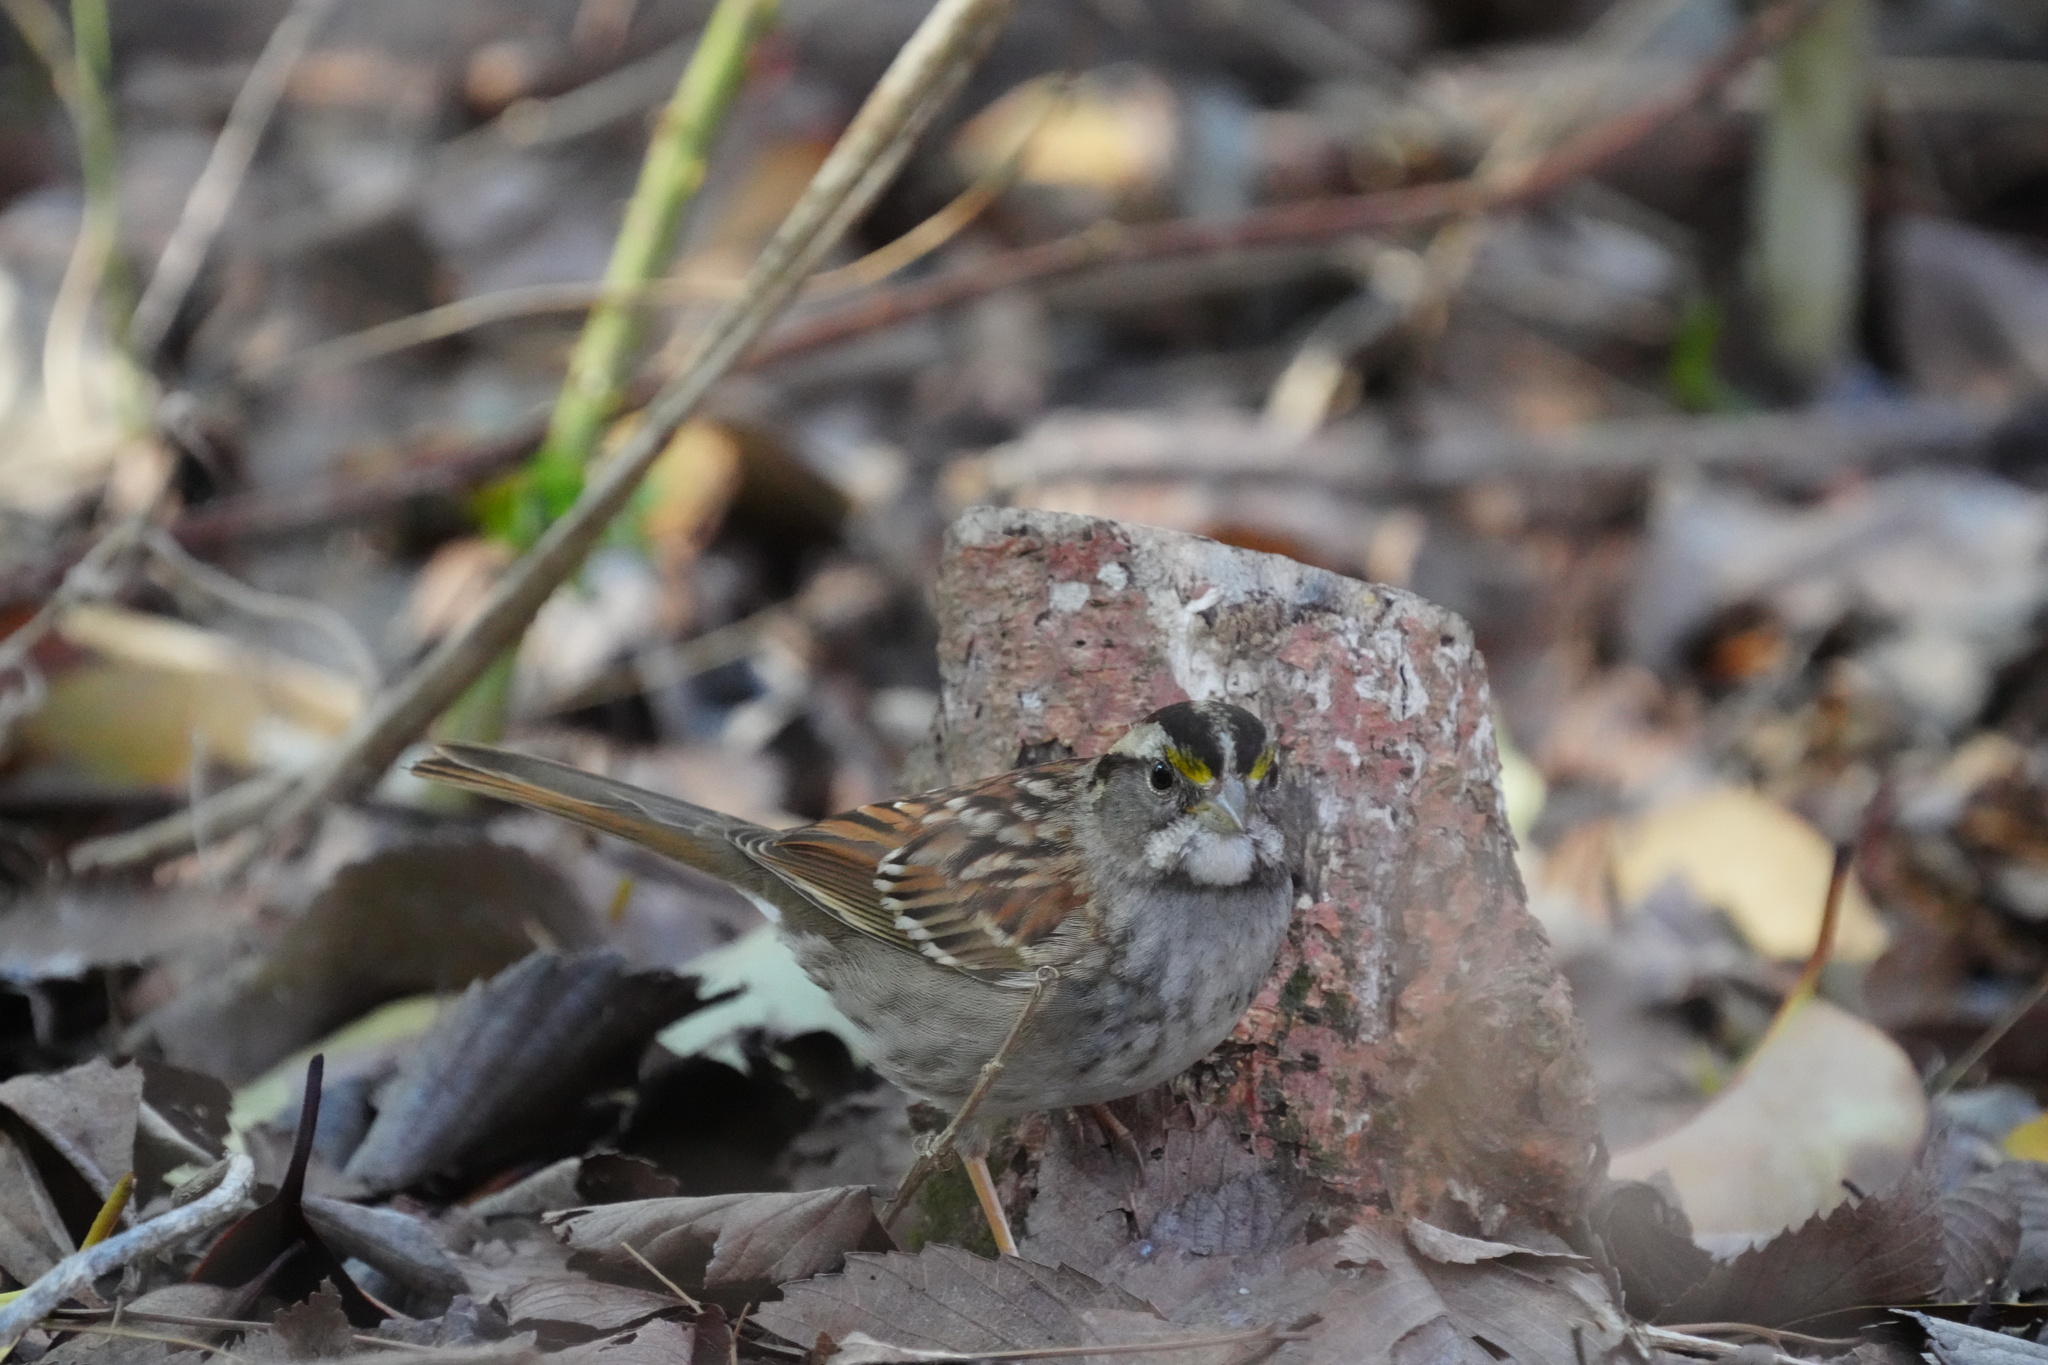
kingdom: Animalia
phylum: Chordata
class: Aves
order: Passeriformes
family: Passerellidae
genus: Zonotrichia
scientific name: Zonotrichia albicollis
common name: White-throated sparrow
